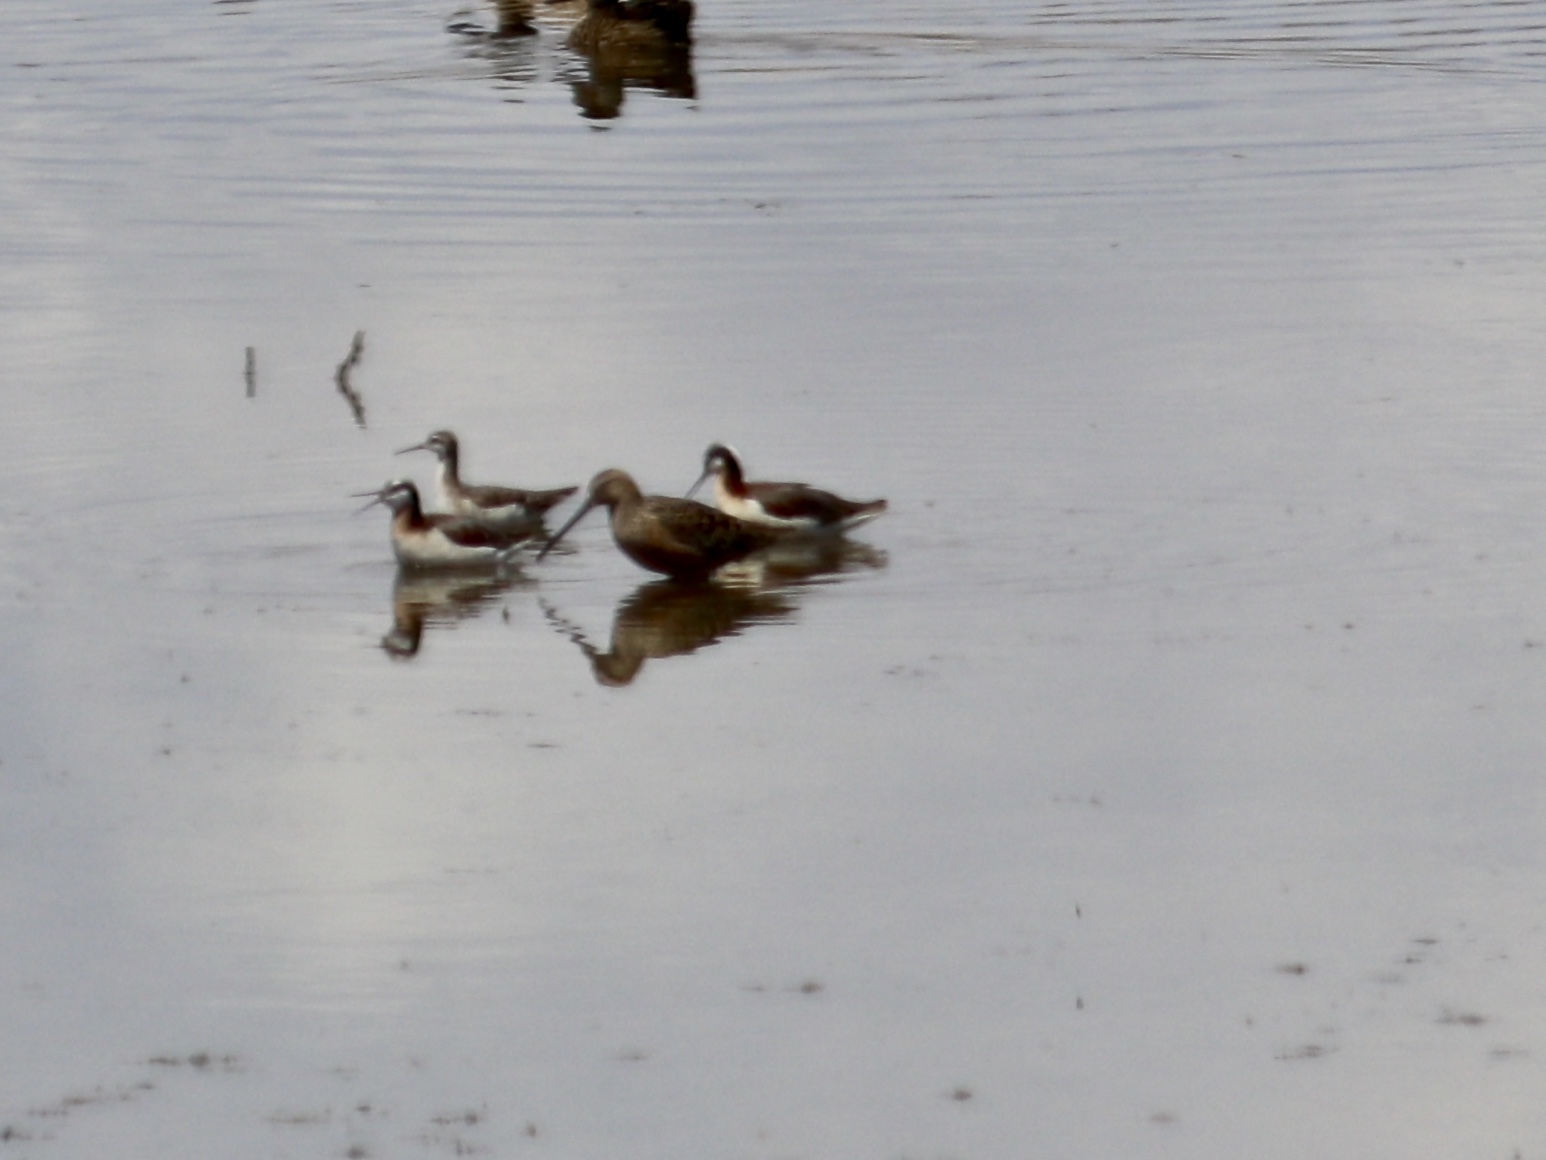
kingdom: Animalia
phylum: Chordata
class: Aves
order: Charadriiformes
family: Scolopacidae
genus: Limnodromus
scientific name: Limnodromus scolopaceus
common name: Long-billed dowitcher
